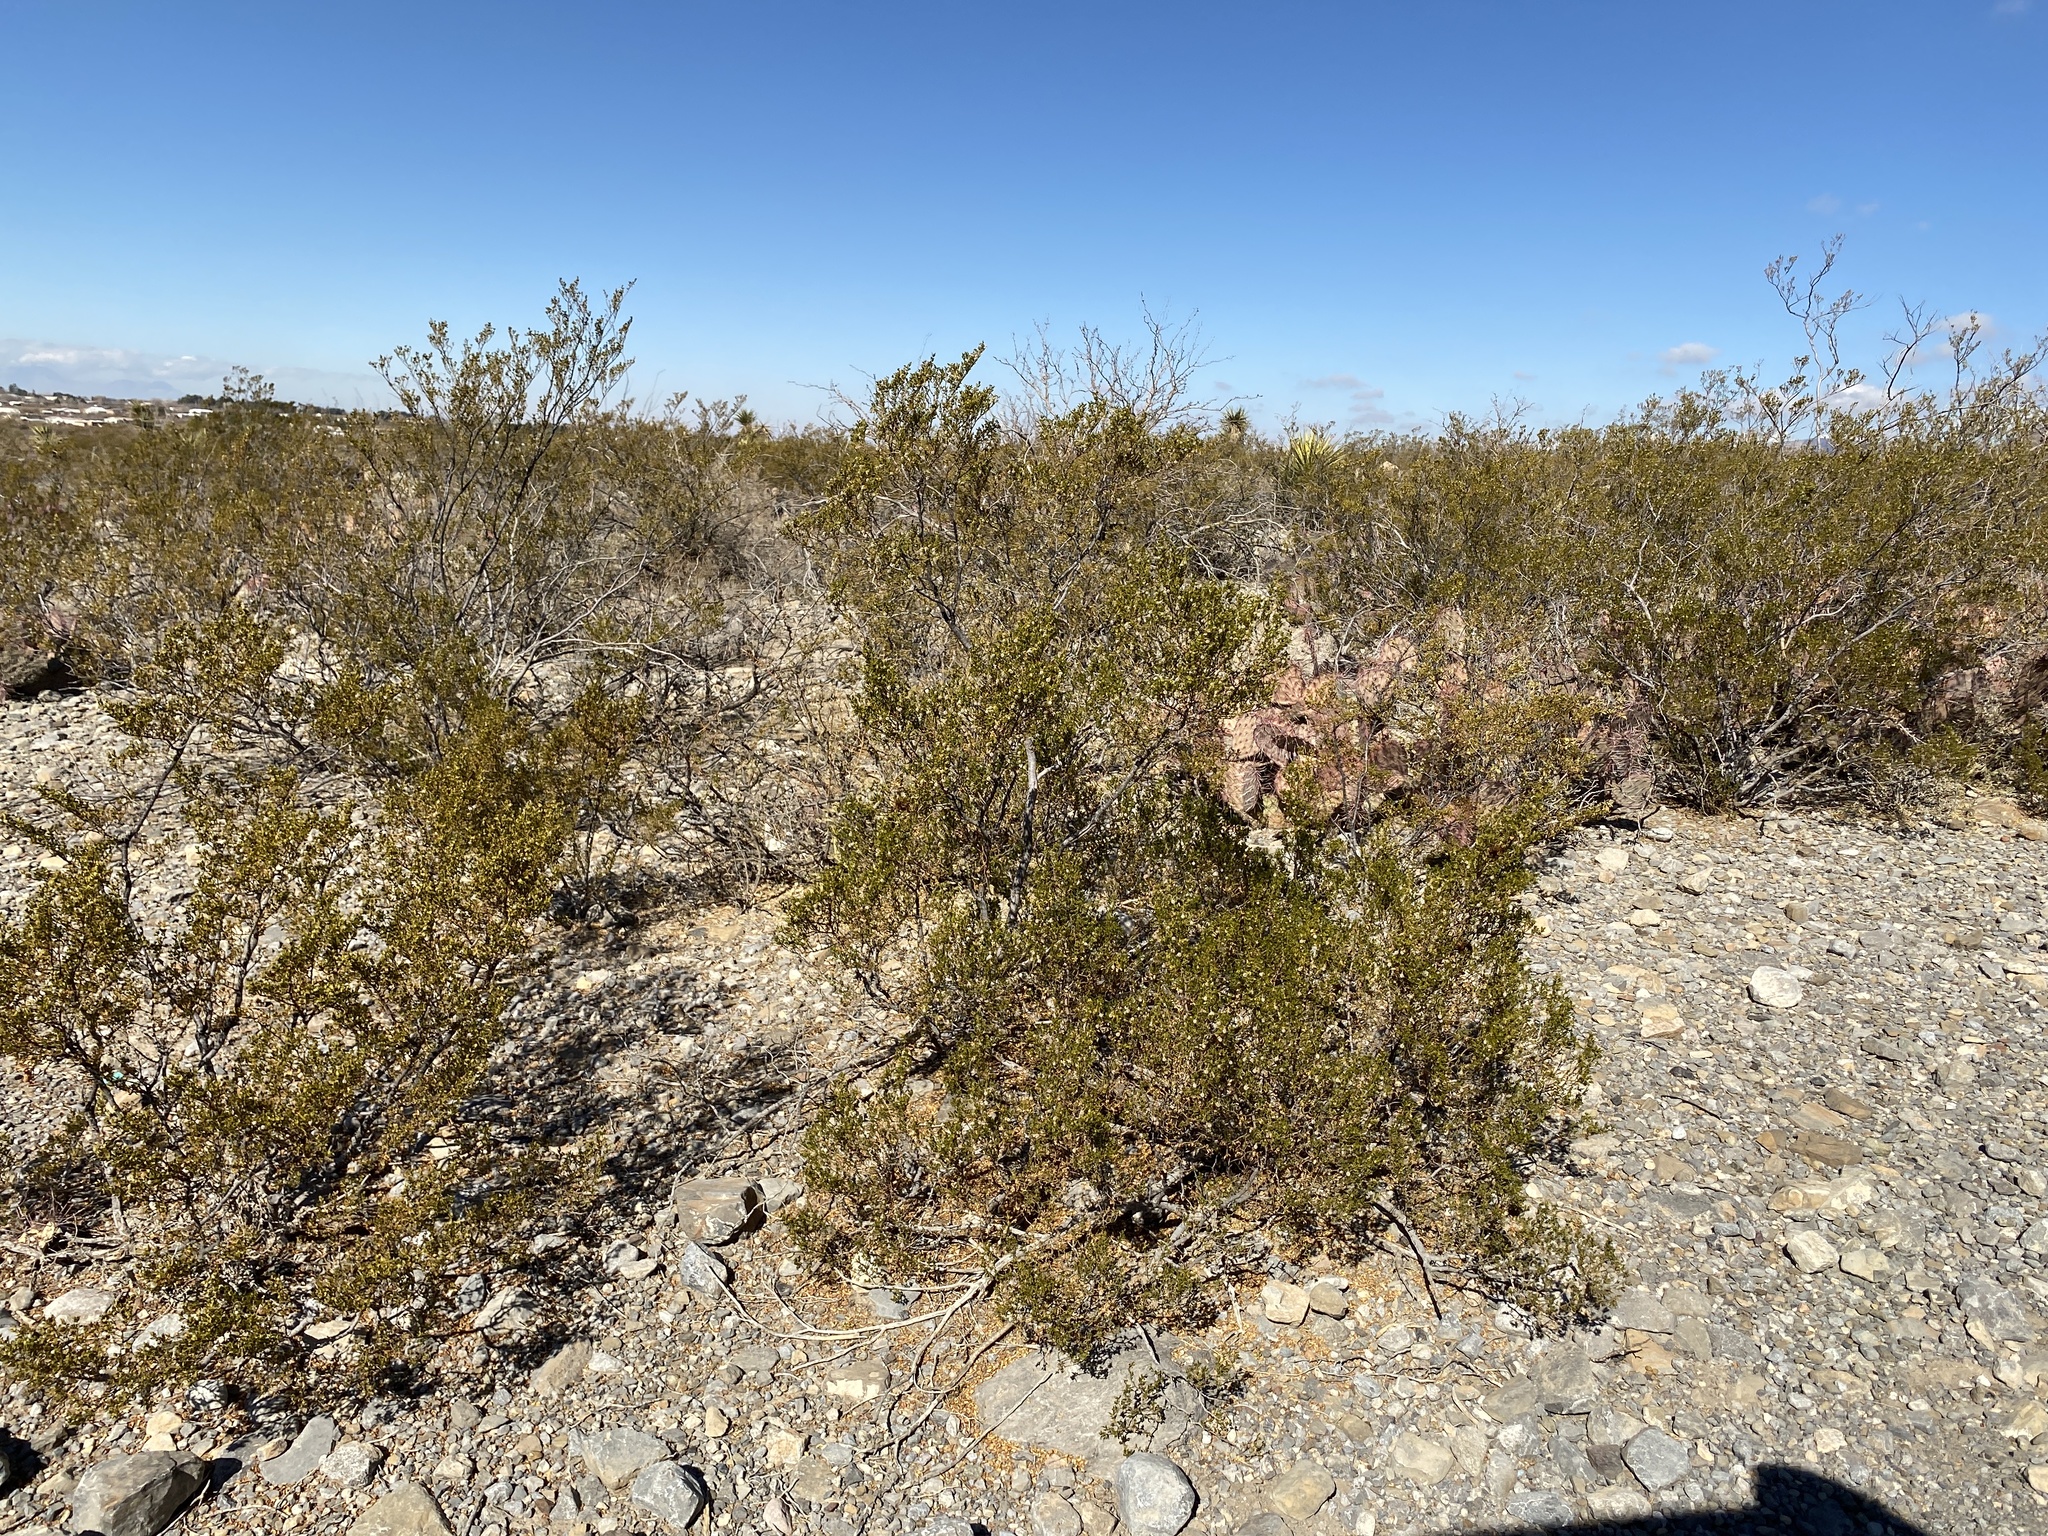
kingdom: Plantae
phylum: Tracheophyta
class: Magnoliopsida
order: Zygophyllales
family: Zygophyllaceae
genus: Larrea
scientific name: Larrea tridentata
